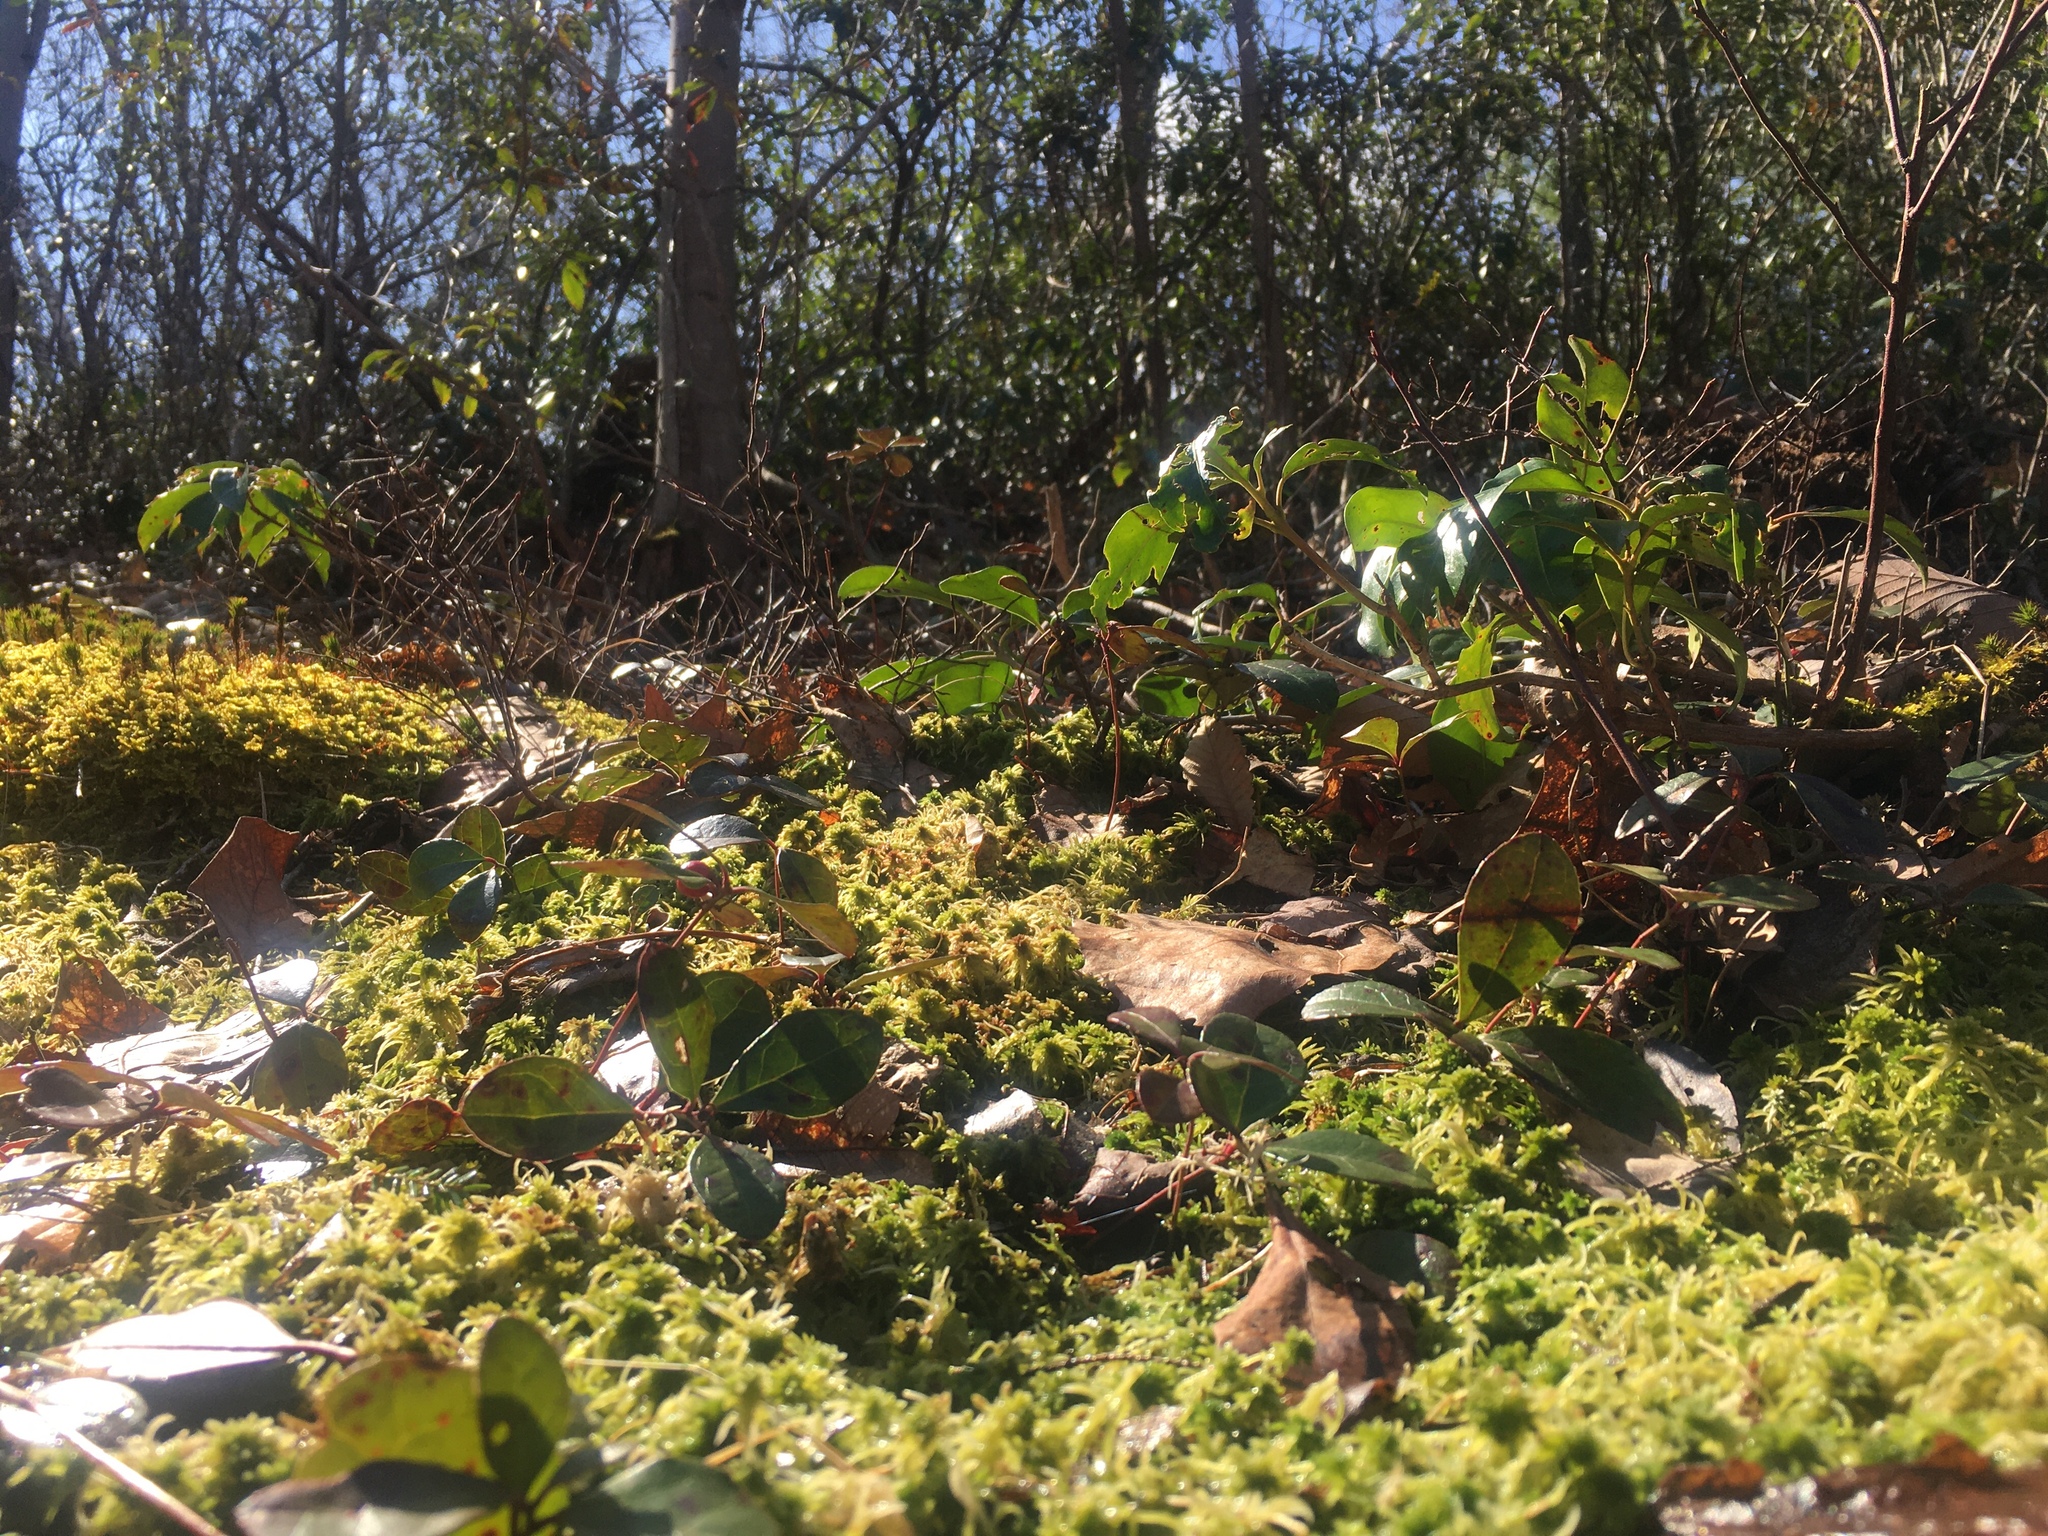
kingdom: Plantae
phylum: Tracheophyta
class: Magnoliopsida
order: Ericales
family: Ericaceae
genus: Gaultheria
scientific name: Gaultheria procumbens
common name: Checkerberry
